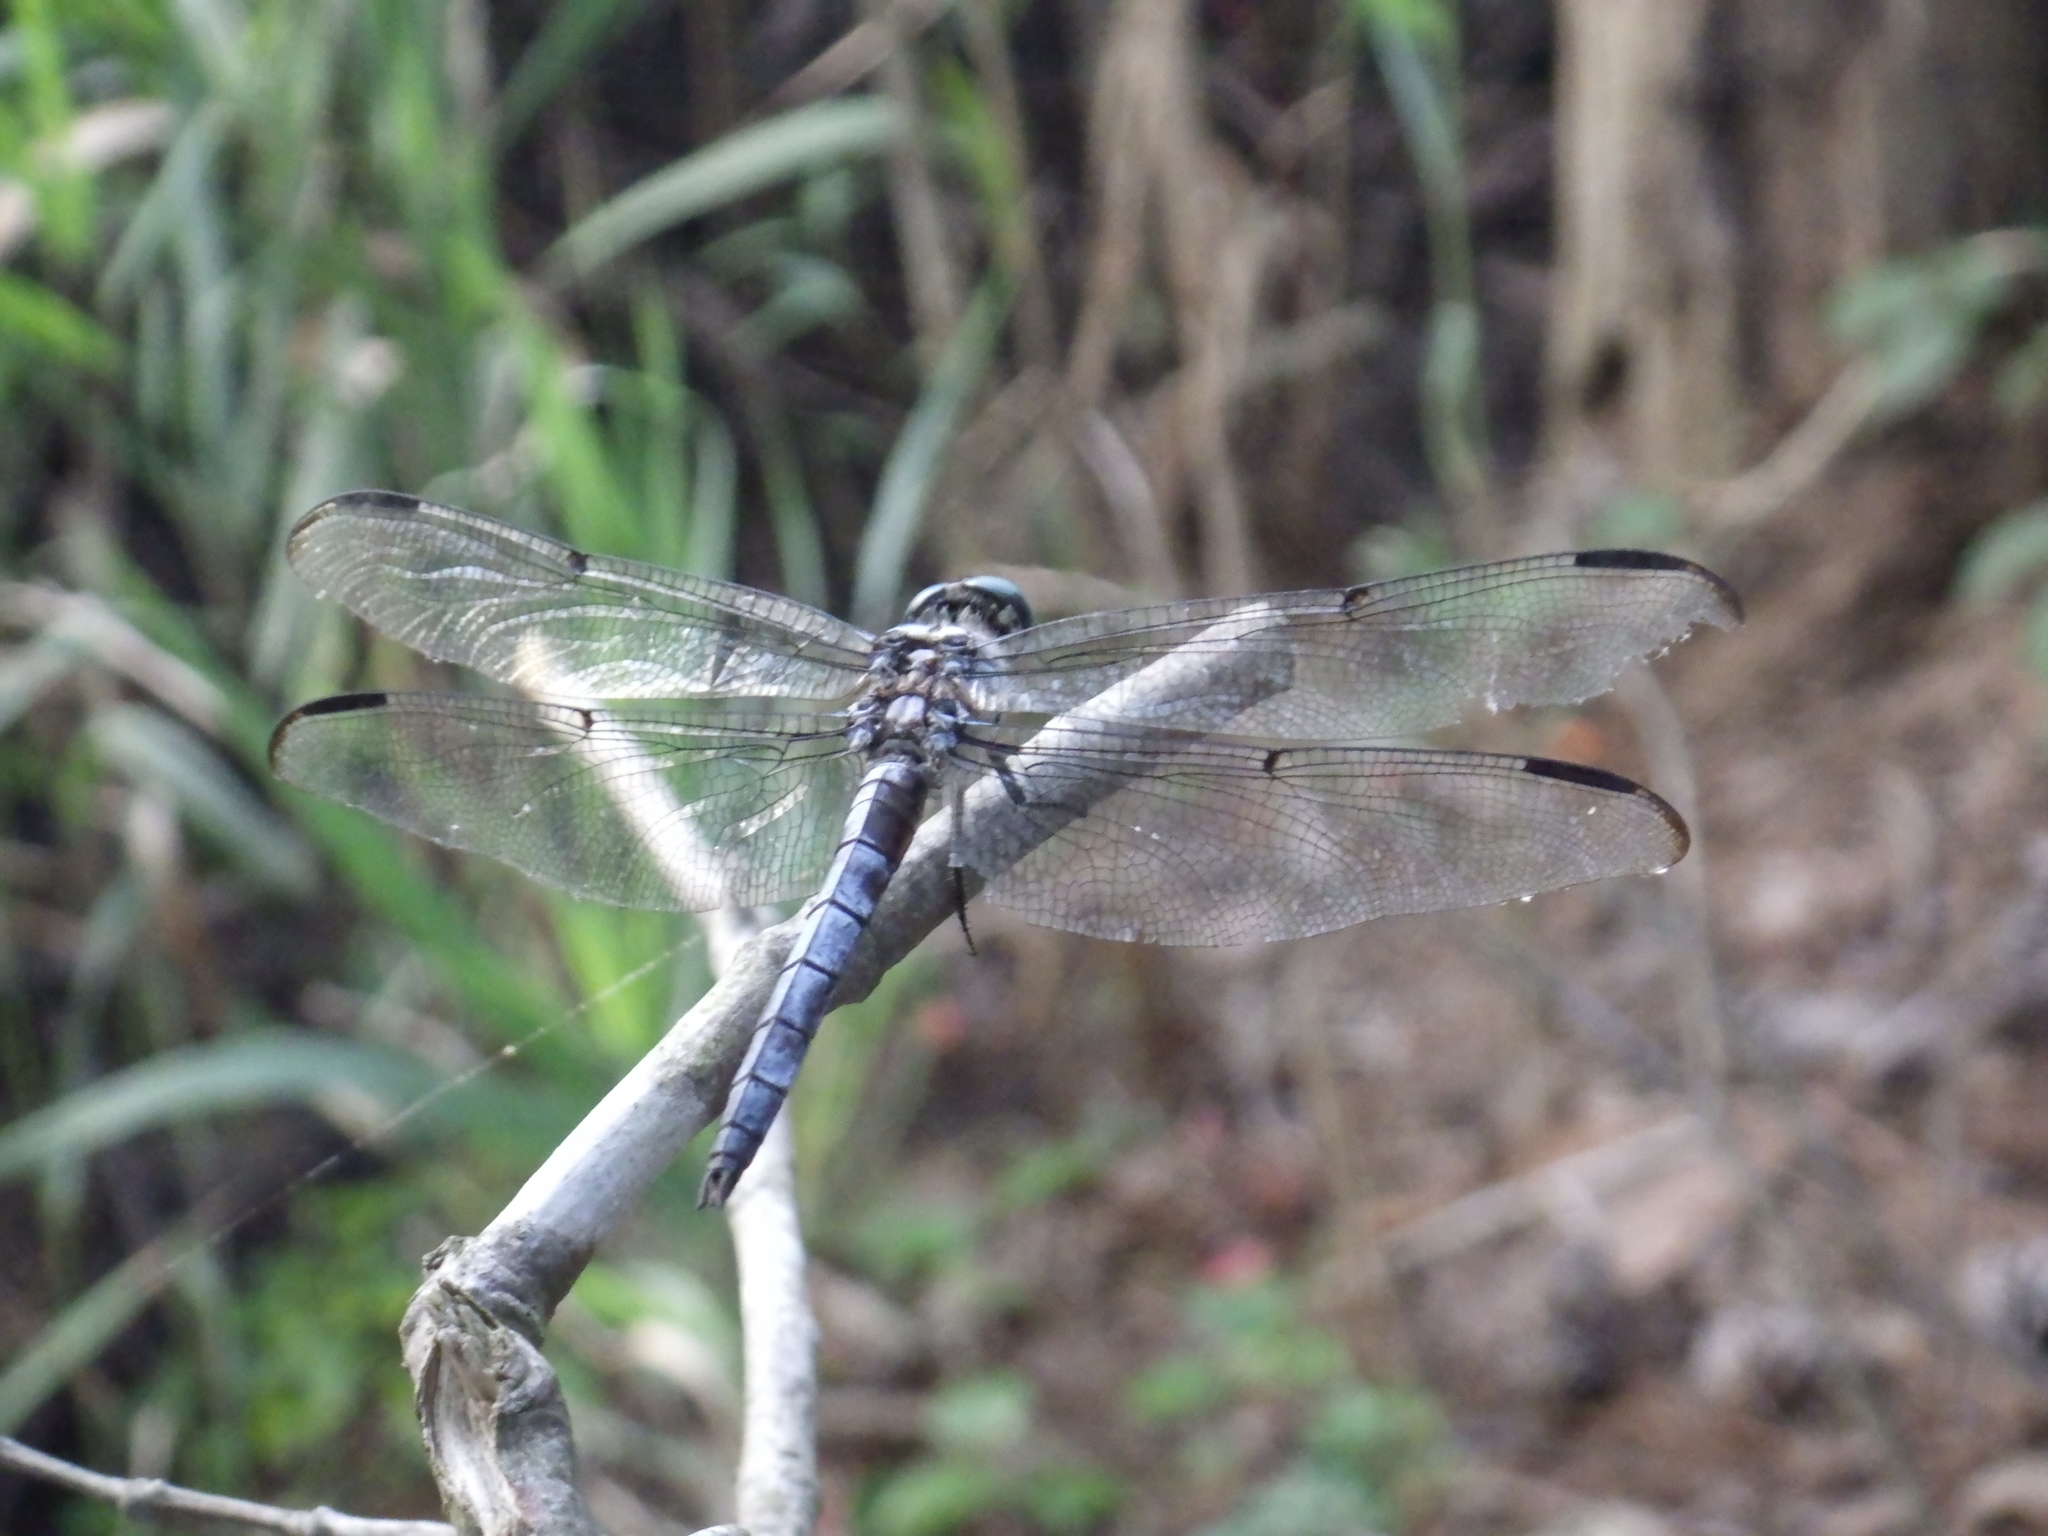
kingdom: Animalia
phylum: Arthropoda
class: Insecta
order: Odonata
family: Libellulidae
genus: Libellula
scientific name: Libellula vibrans
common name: Great blue skimmer
